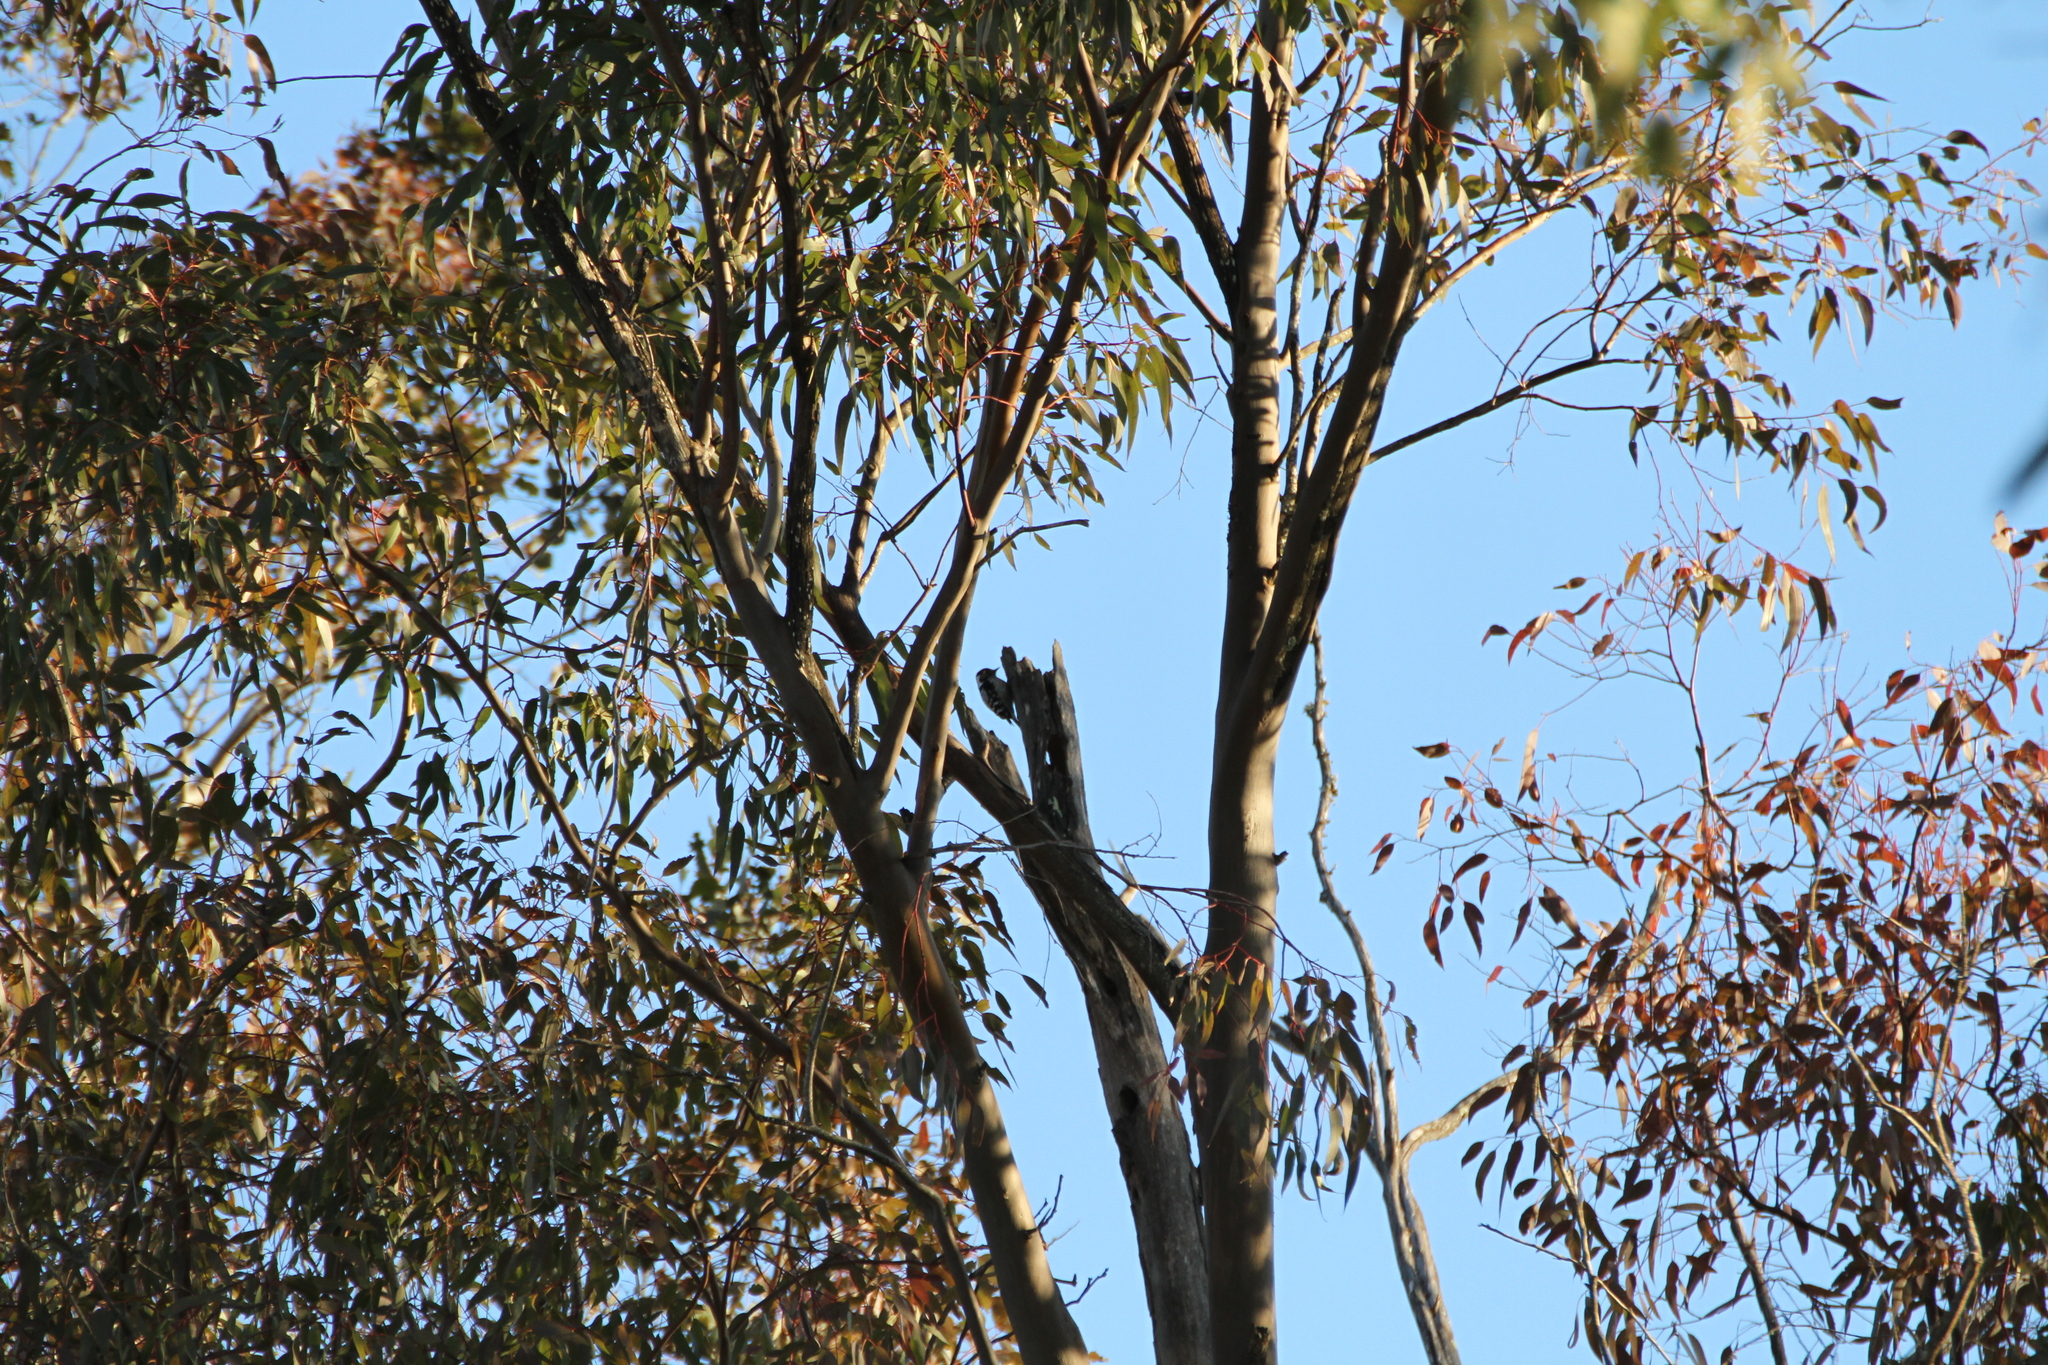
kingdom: Animalia
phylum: Chordata
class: Aves
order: Piciformes
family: Picidae
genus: Dryobates
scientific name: Dryobates minor
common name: Lesser spotted woodpecker
